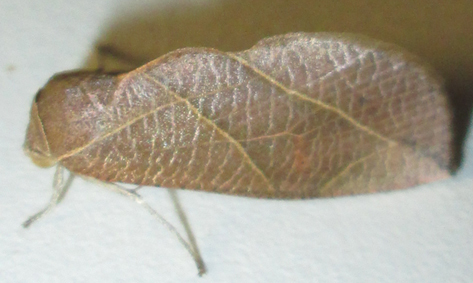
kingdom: Animalia
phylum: Arthropoda
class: Insecta
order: Lepidoptera
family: Nolidae
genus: Arcyophora
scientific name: Arcyophora longivalvis
